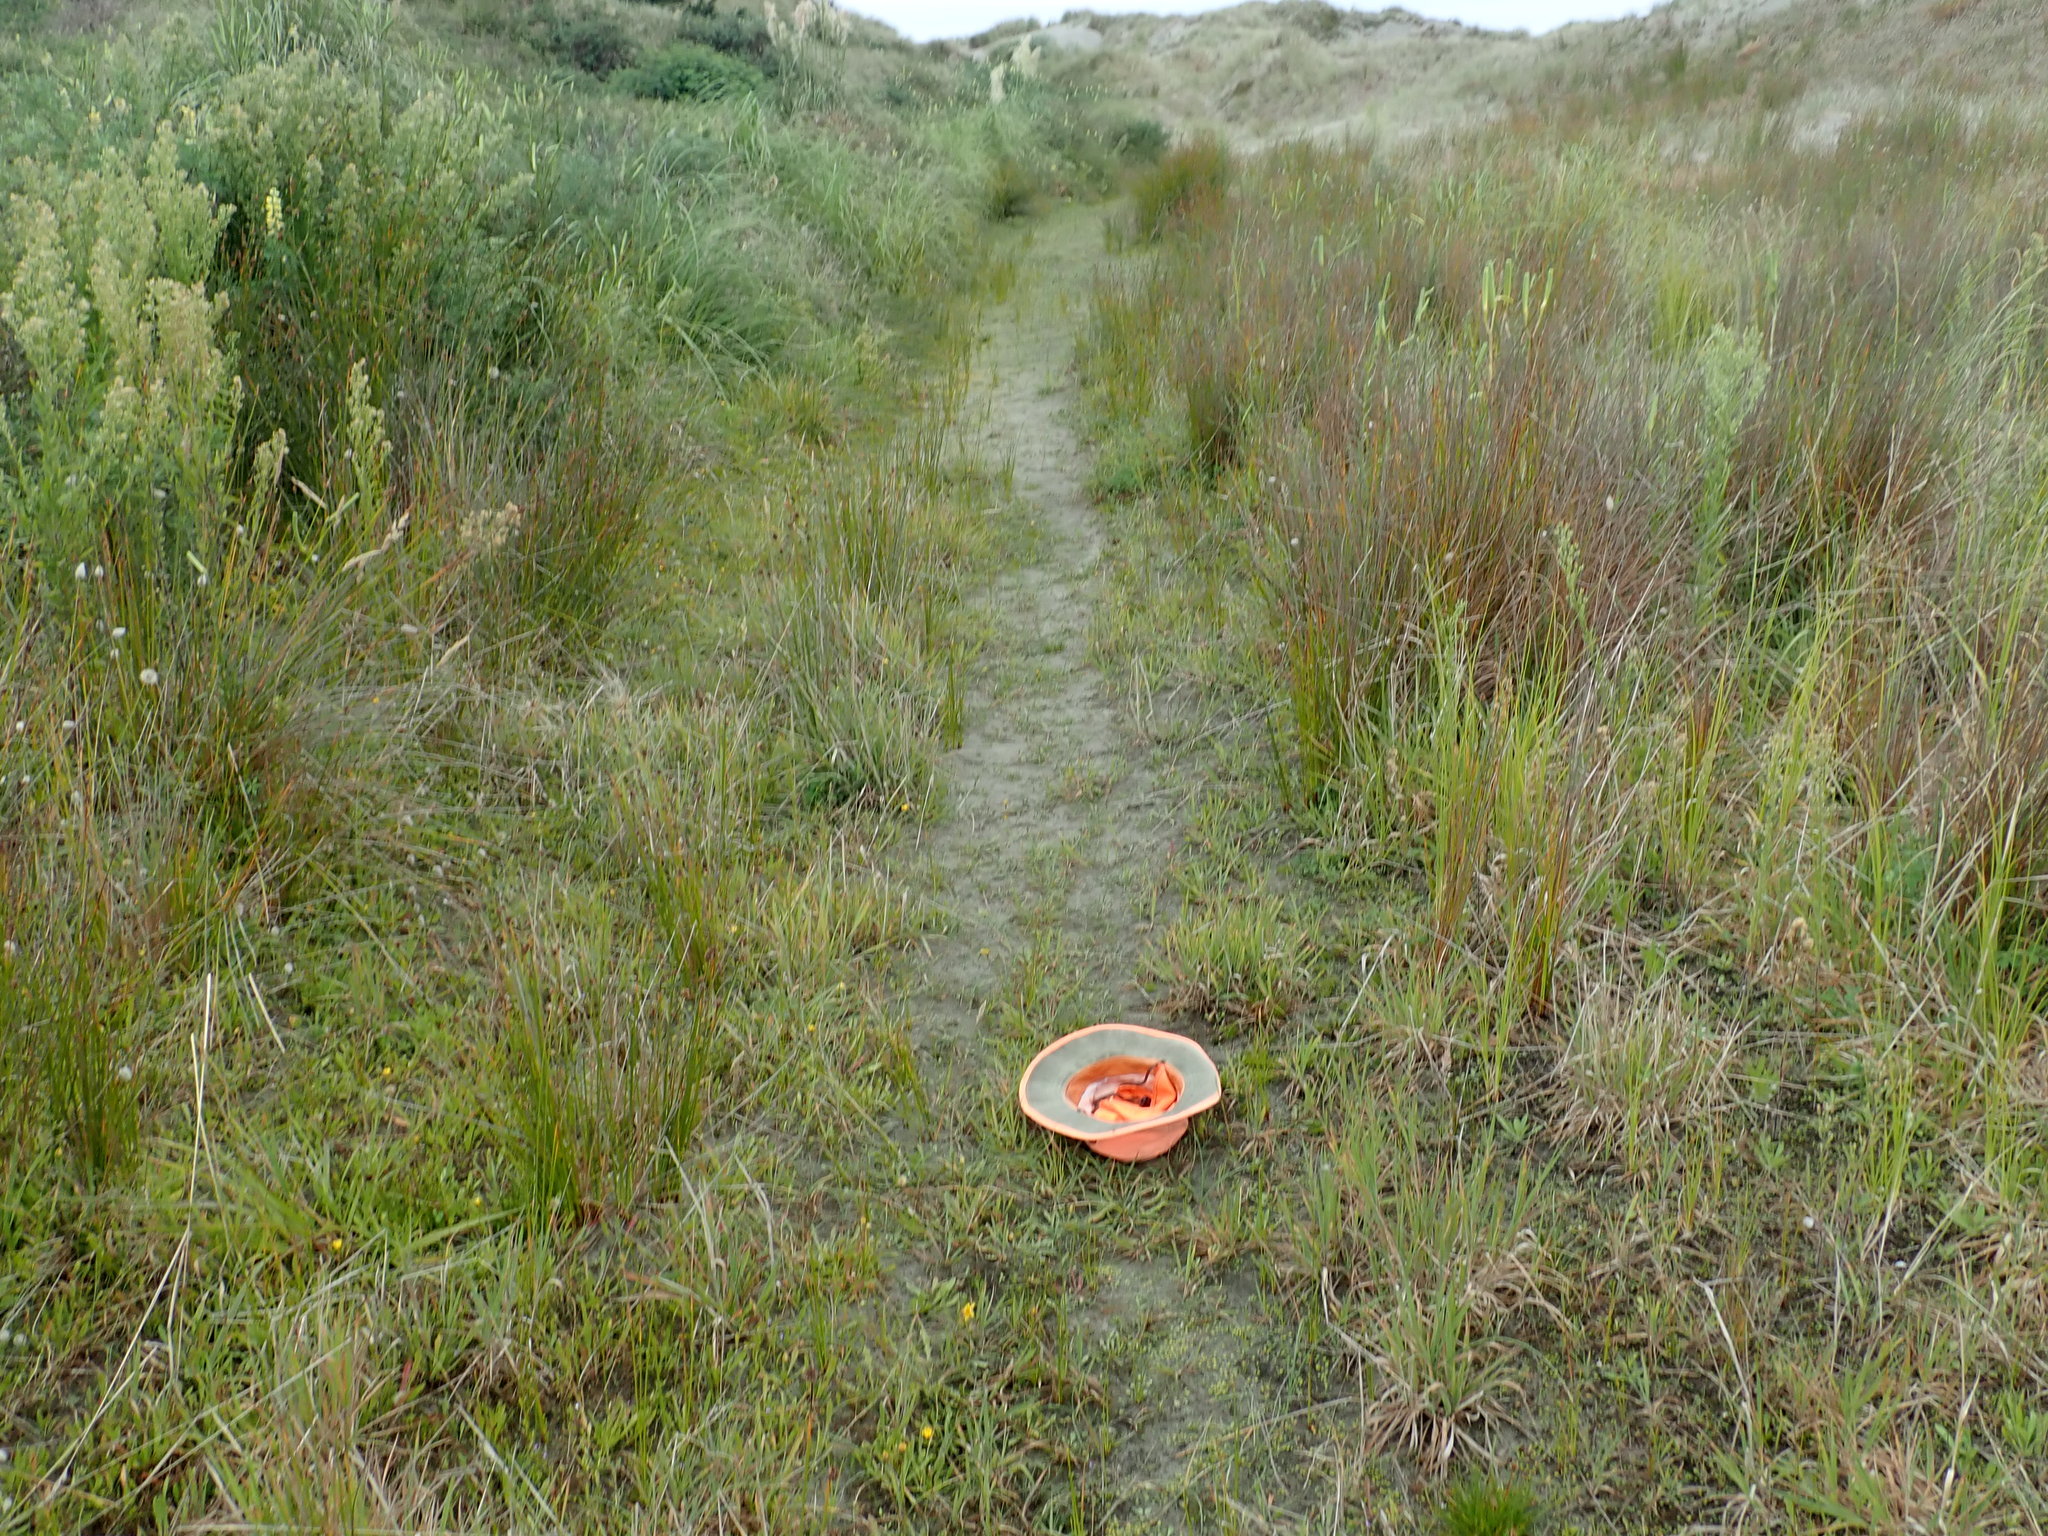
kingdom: Plantae
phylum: Tracheophyta
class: Liliopsida
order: Poales
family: Juncaceae
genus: Juncus
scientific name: Juncus bufonius
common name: Toad rush
